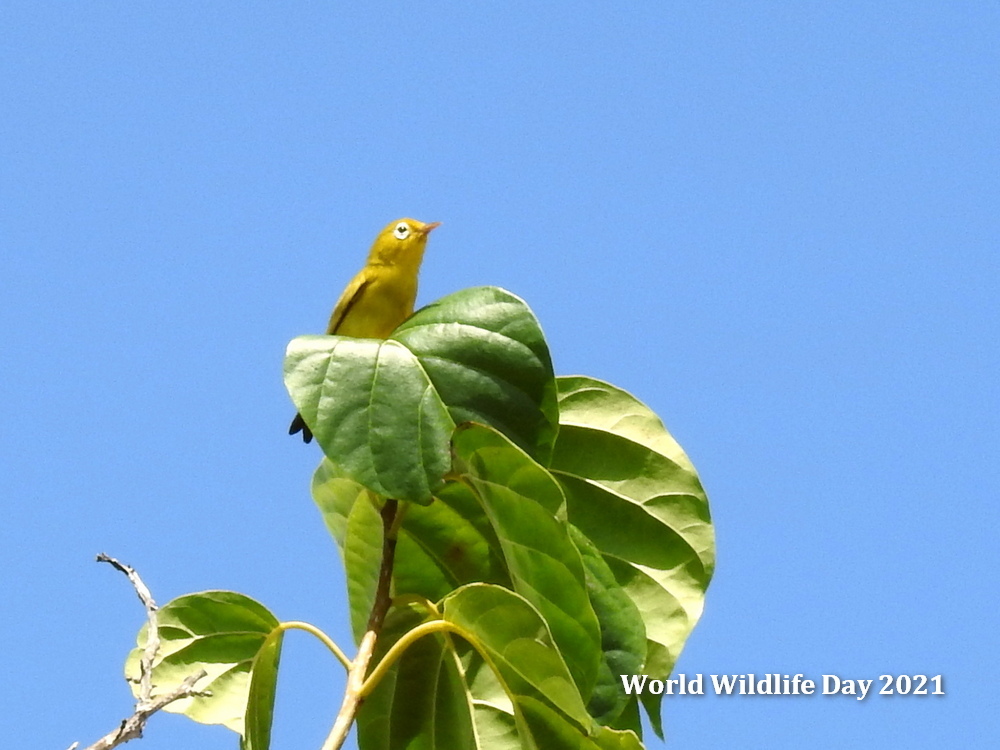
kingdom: Animalia
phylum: Chordata
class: Aves
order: Passeriformes
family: Zosteropidae
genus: Zosterops
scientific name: Zosterops flavissimus
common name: Wakatobi white-eye
